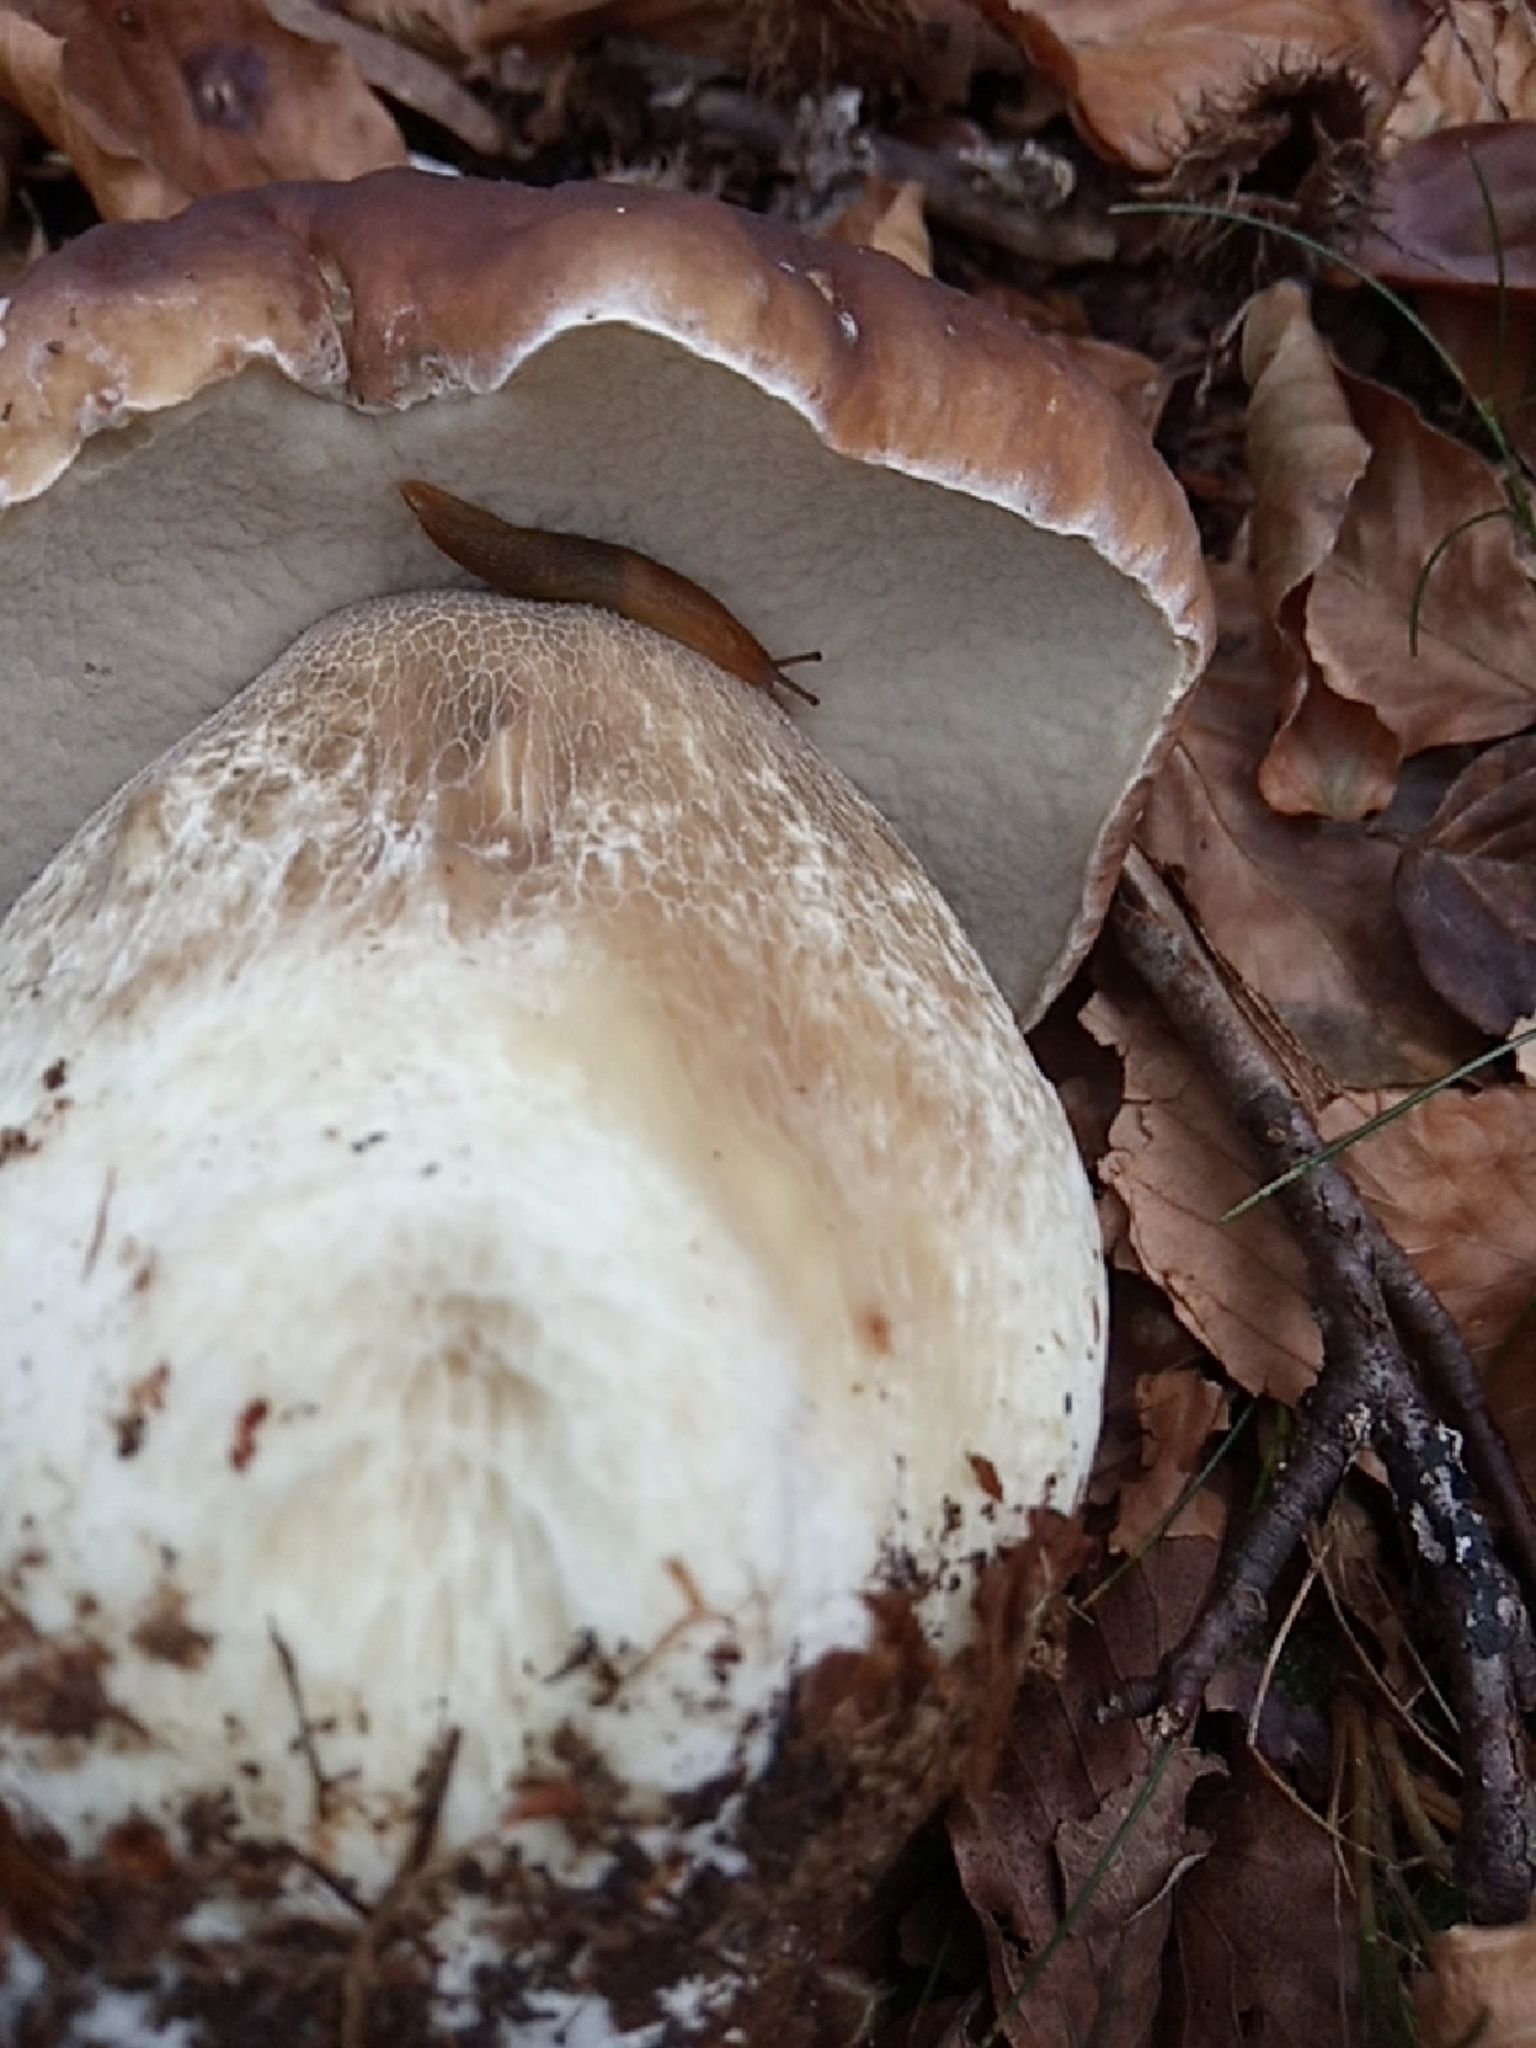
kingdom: Fungi
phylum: Basidiomycota
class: Agaricomycetes
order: Boletales
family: Boletaceae
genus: Boletus
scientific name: Boletus edulis
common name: Cep
